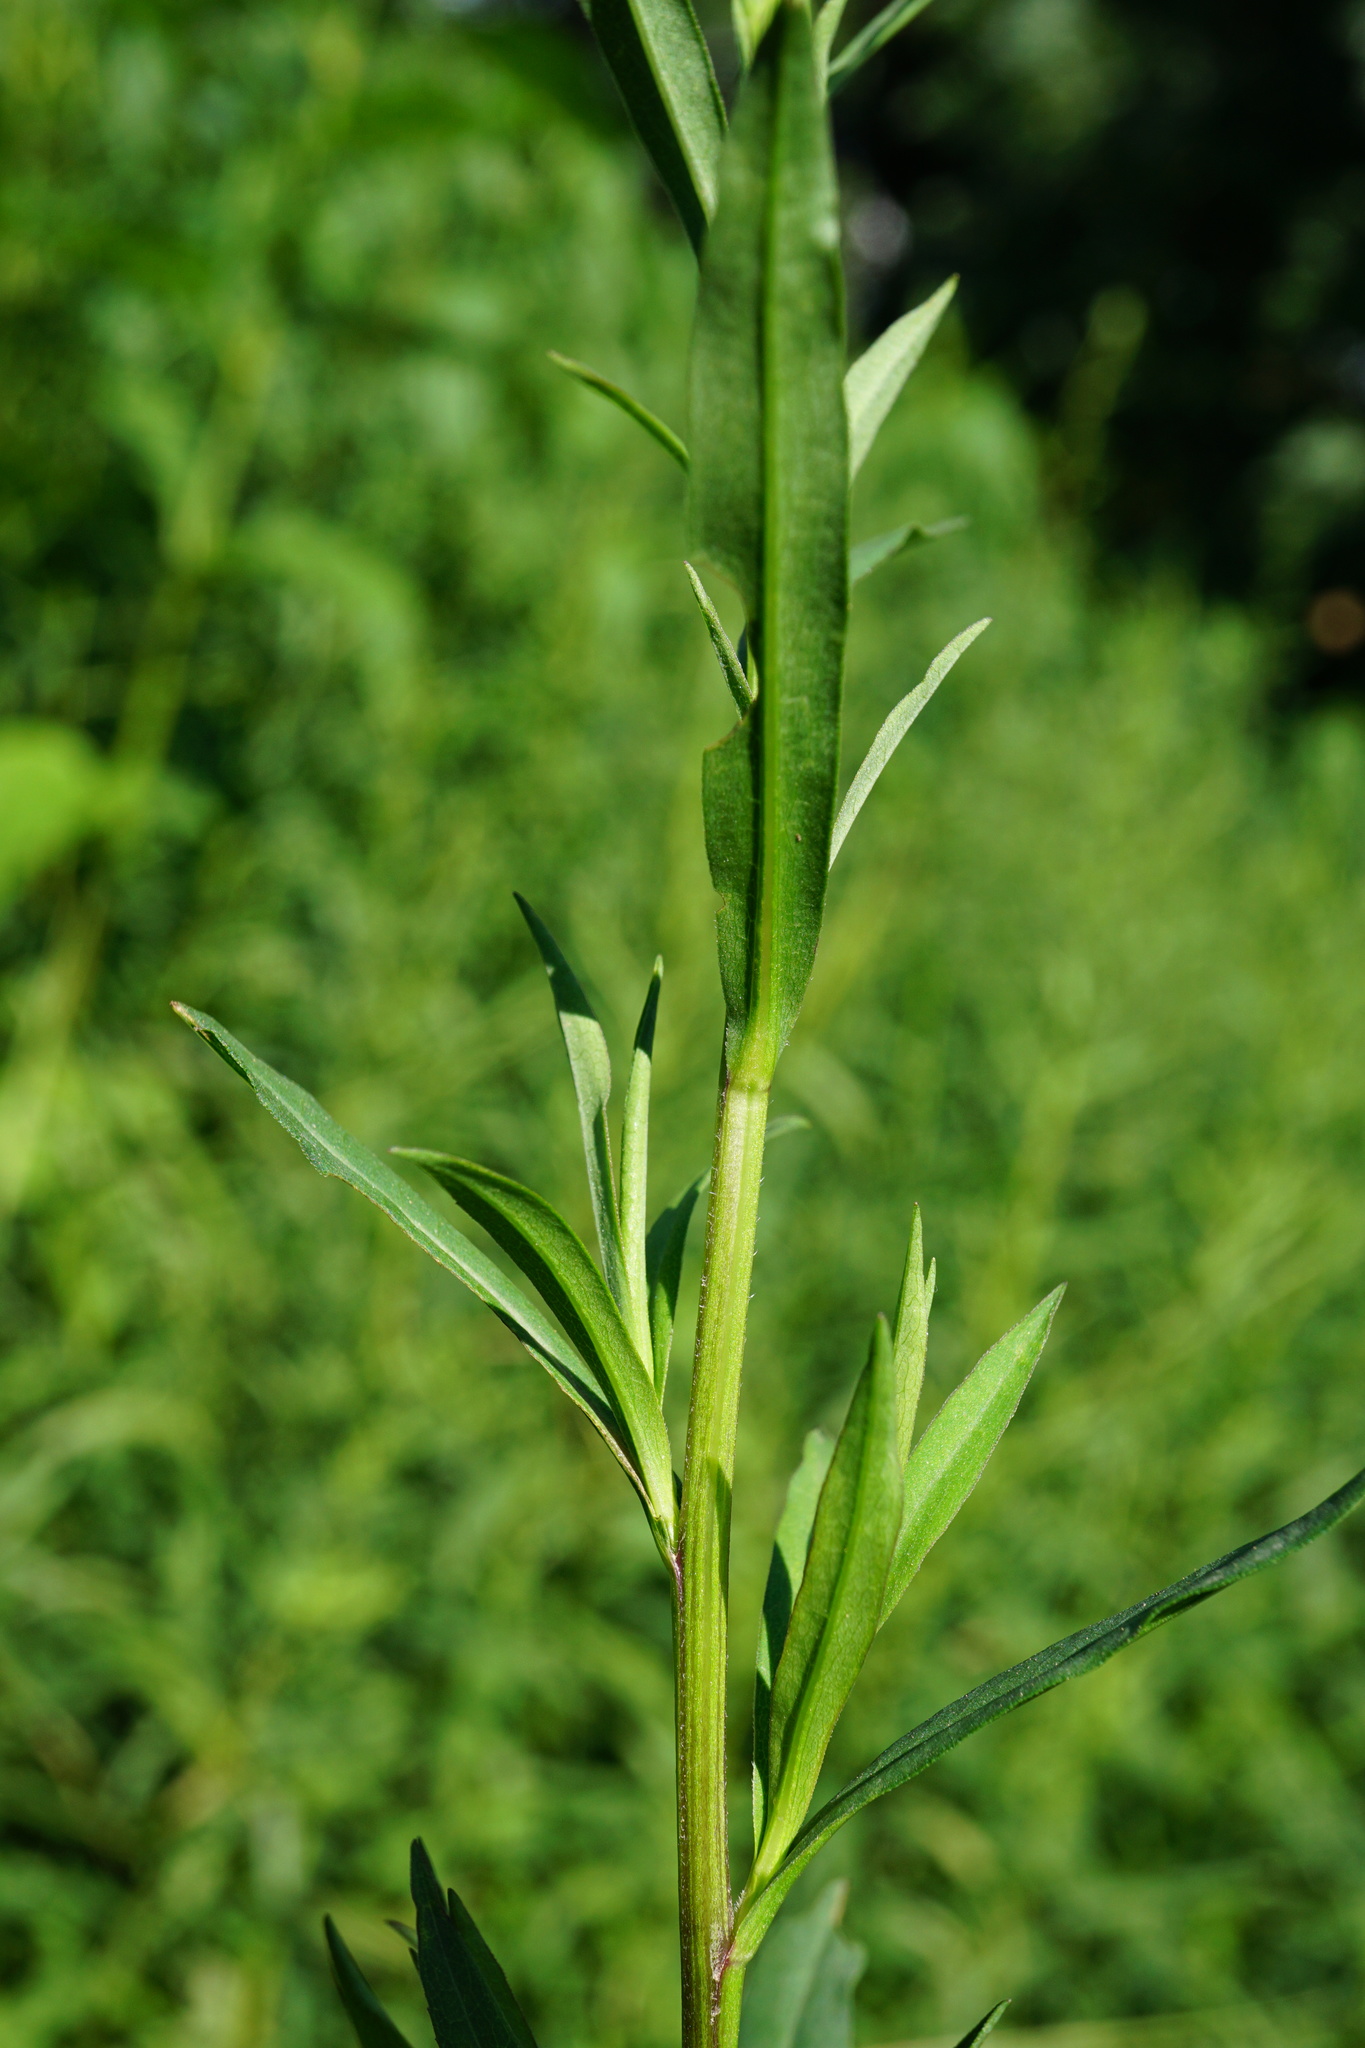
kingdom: Plantae
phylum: Tracheophyta
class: Magnoliopsida
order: Asterales
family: Asteraceae
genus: Symphyotrichum
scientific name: Symphyotrichum lanceolatum
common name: Panicled aster
